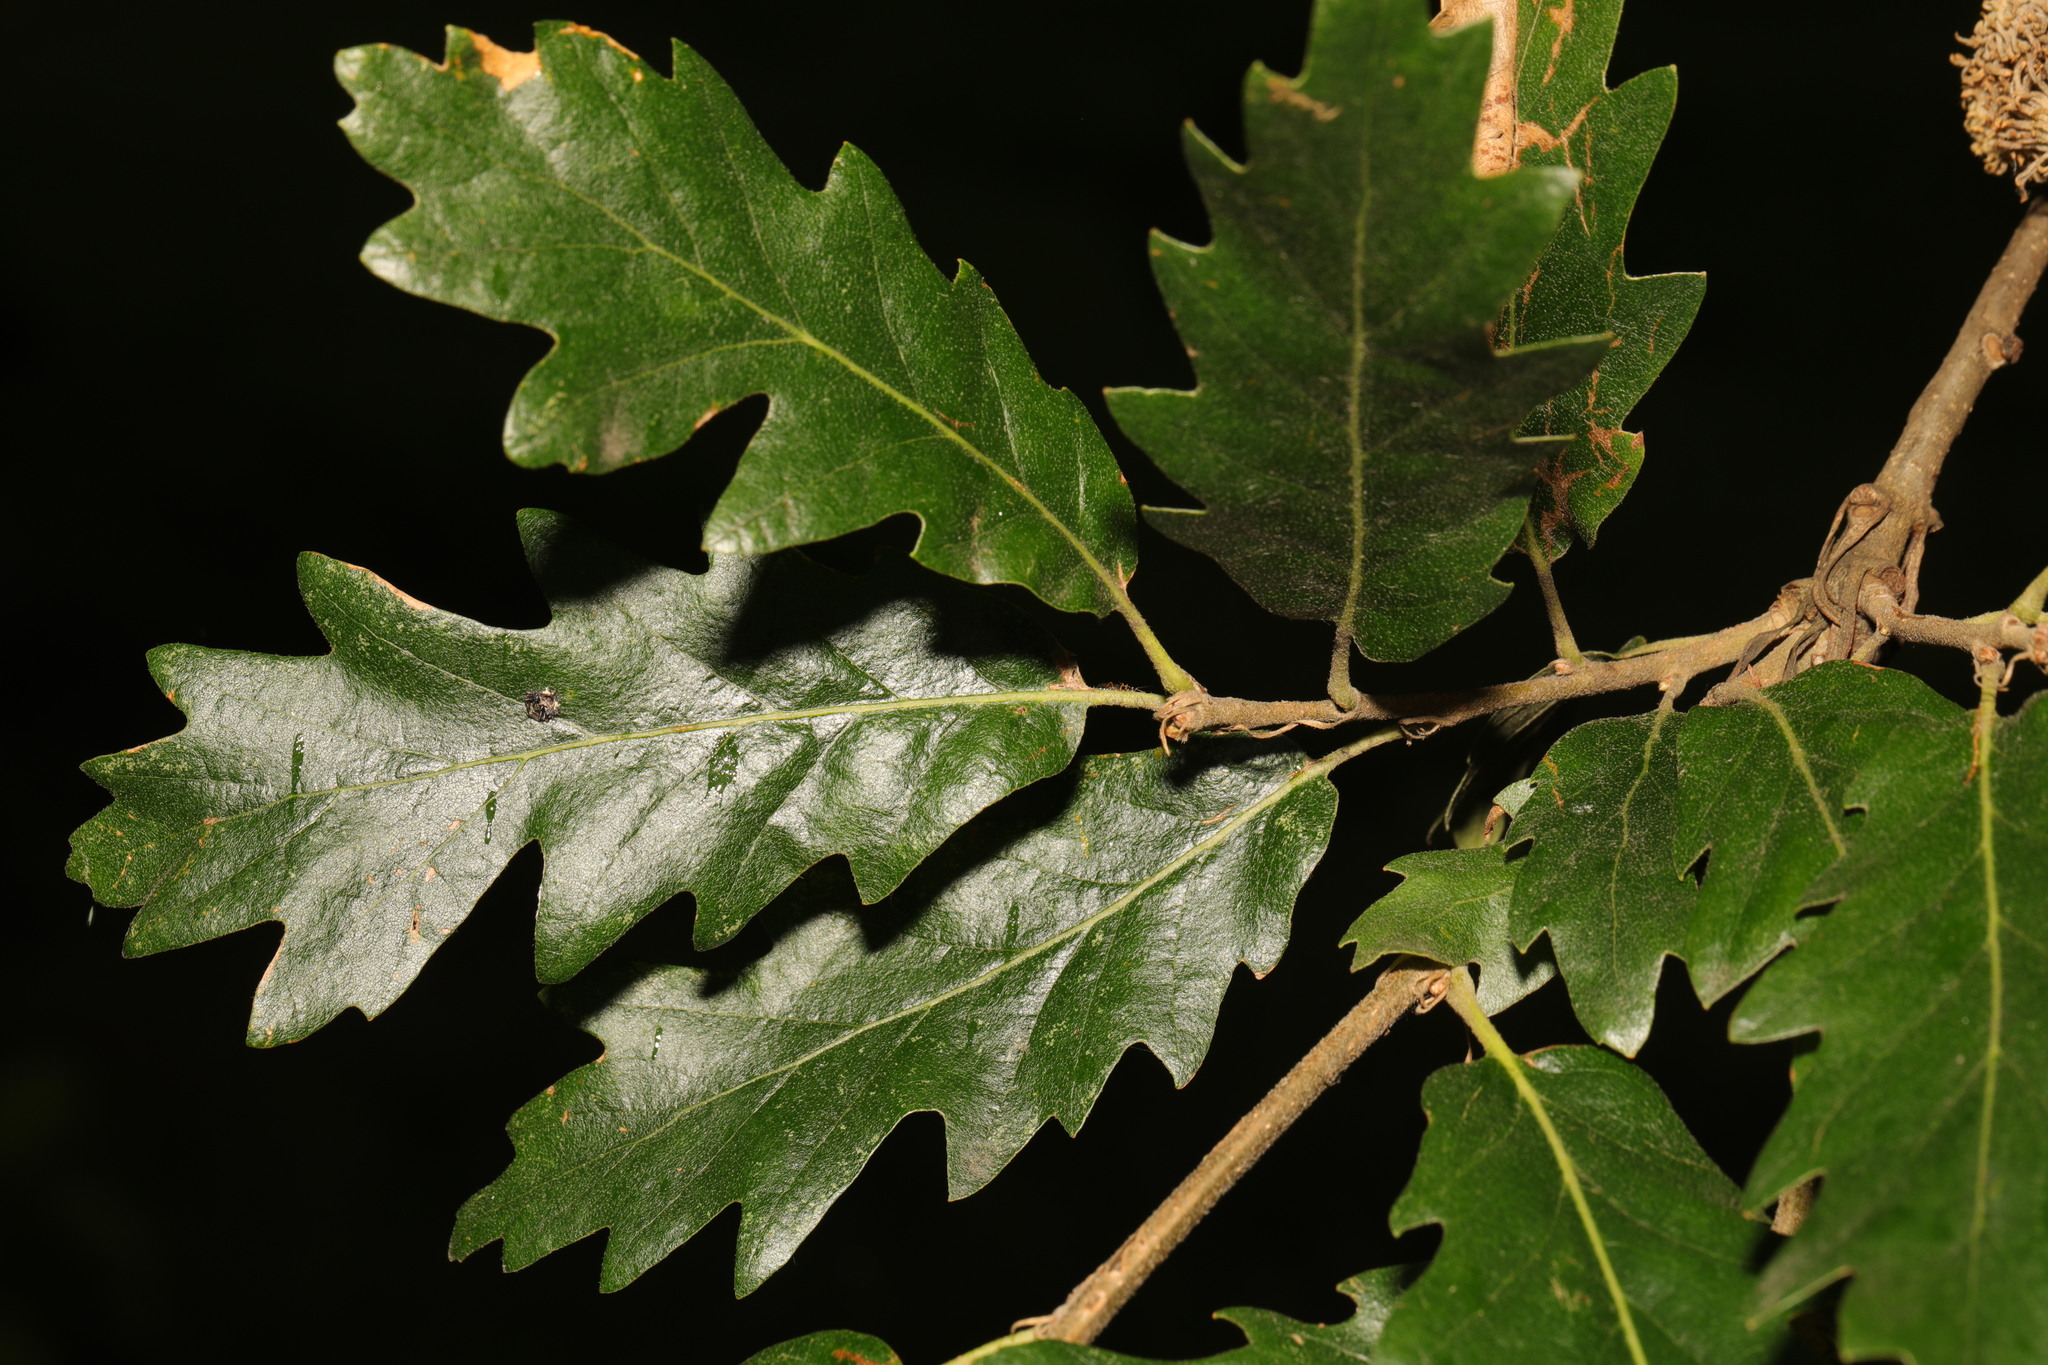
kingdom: Plantae
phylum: Tracheophyta
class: Magnoliopsida
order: Fagales
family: Fagaceae
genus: Quercus
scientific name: Quercus cerris
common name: Turkey oak
